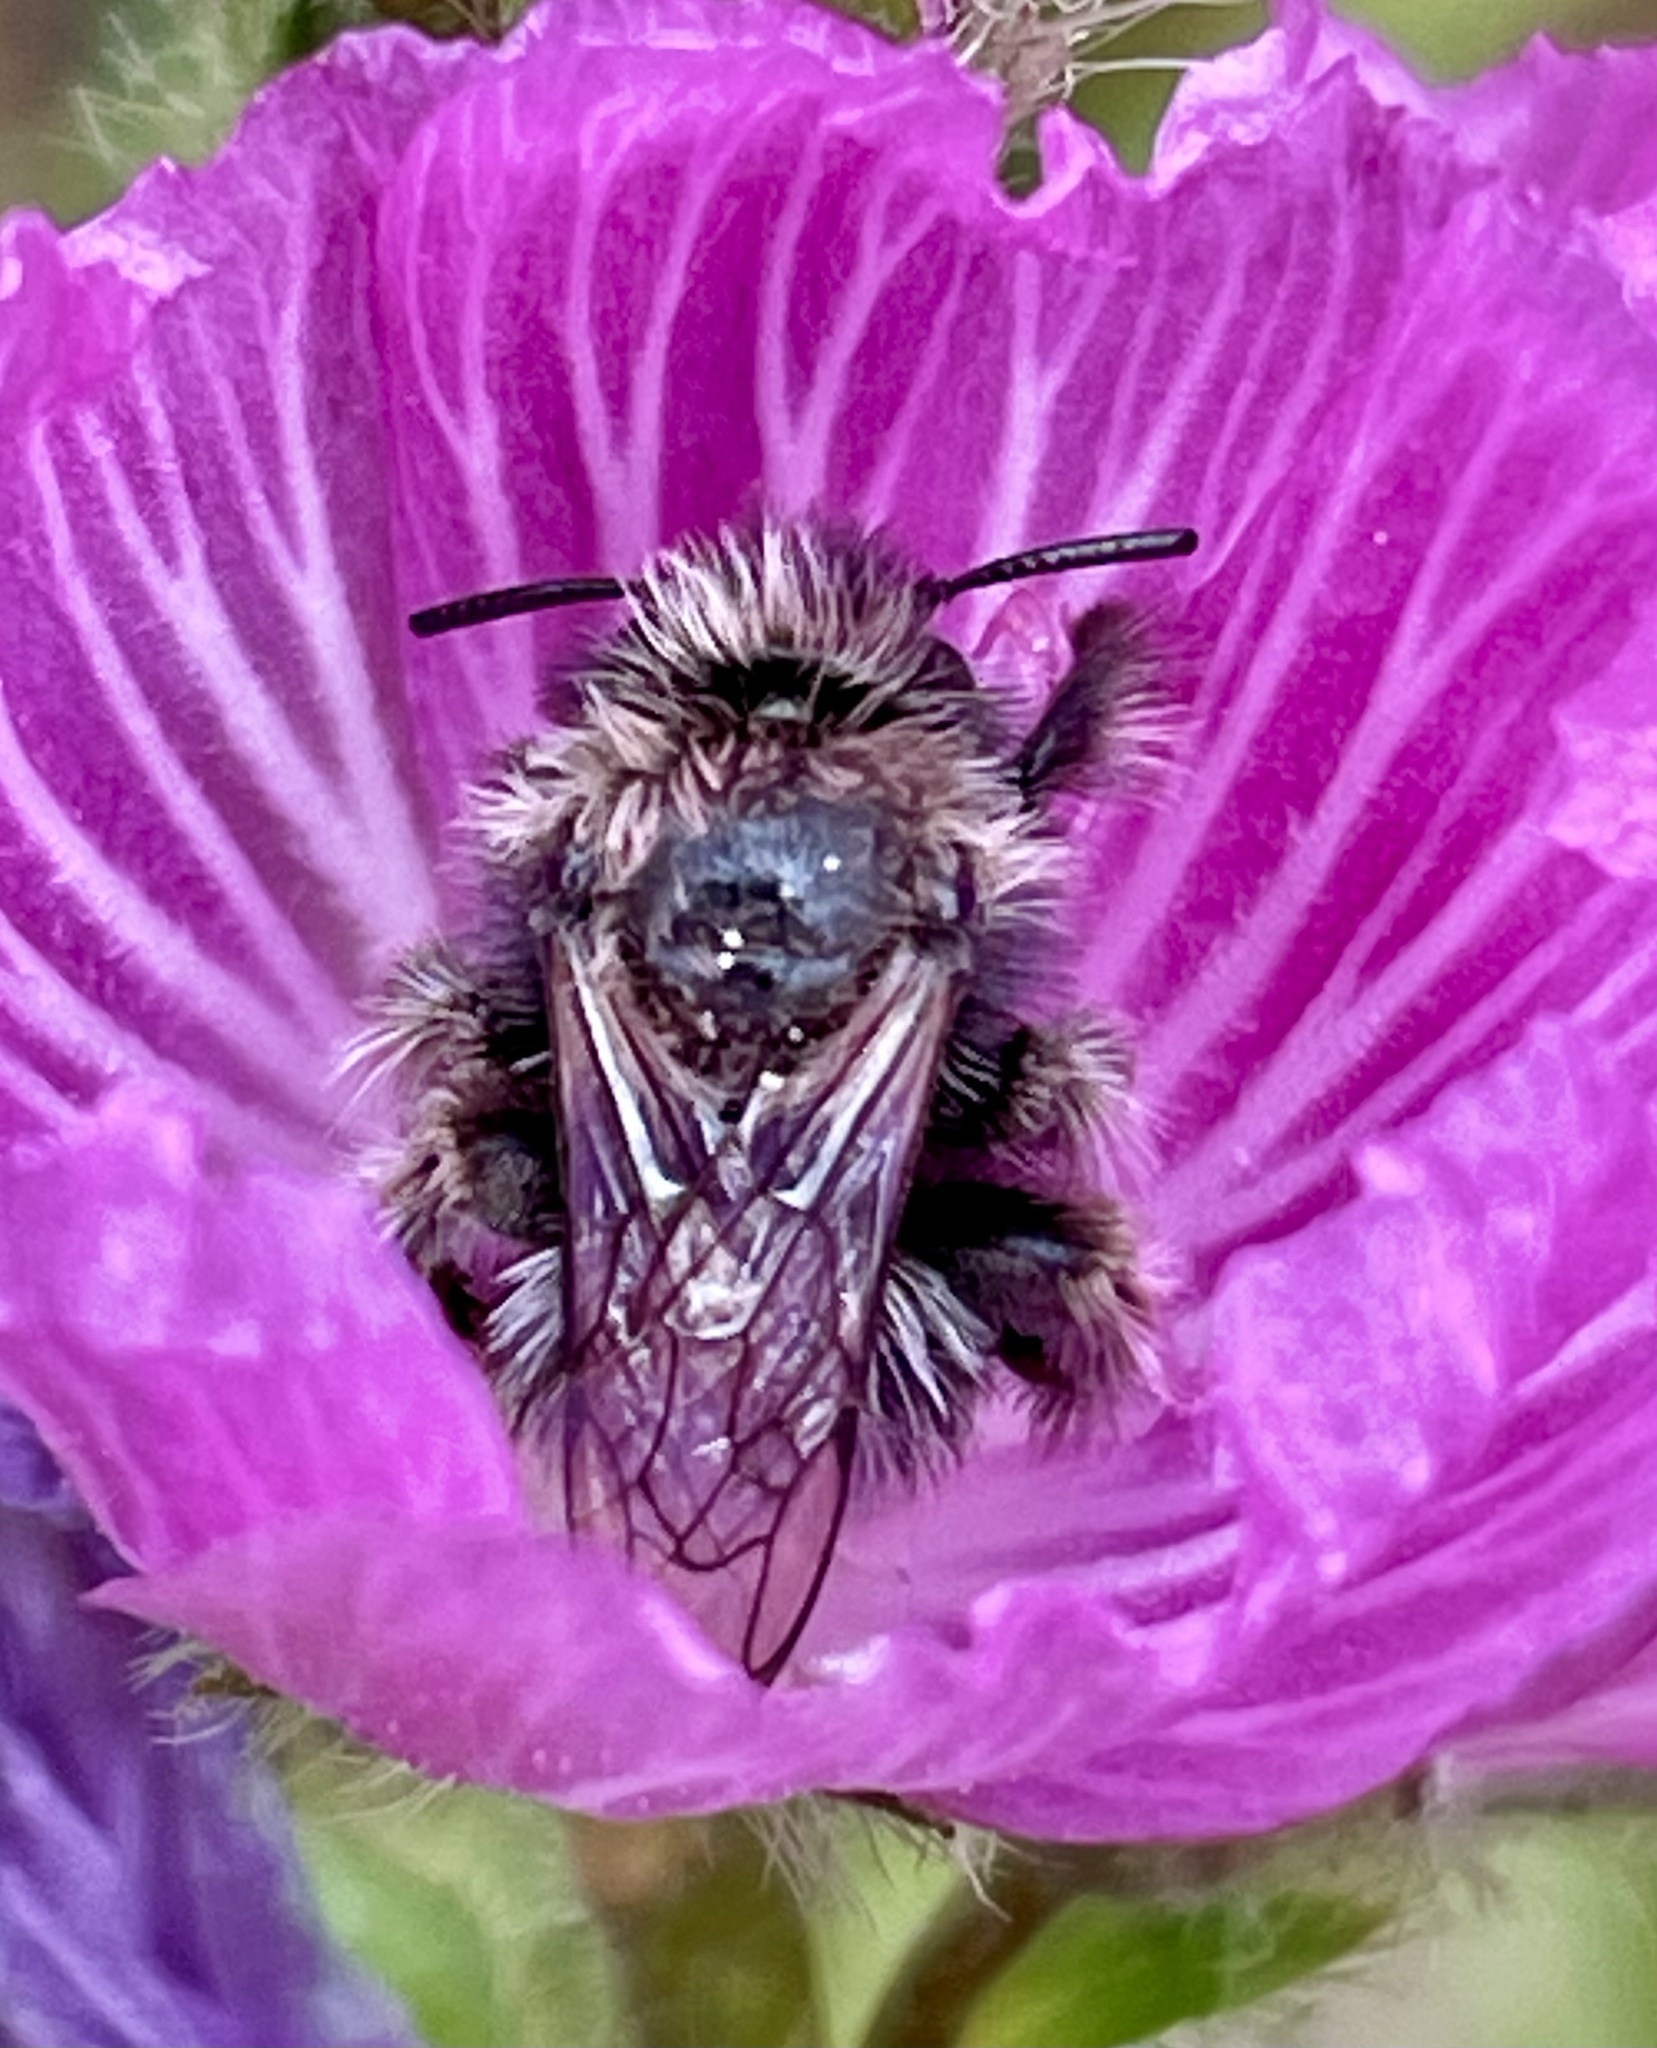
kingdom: Animalia
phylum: Arthropoda
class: Insecta
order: Hymenoptera
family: Apidae
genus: Diadasia
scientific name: Diadasia nigrifrons
